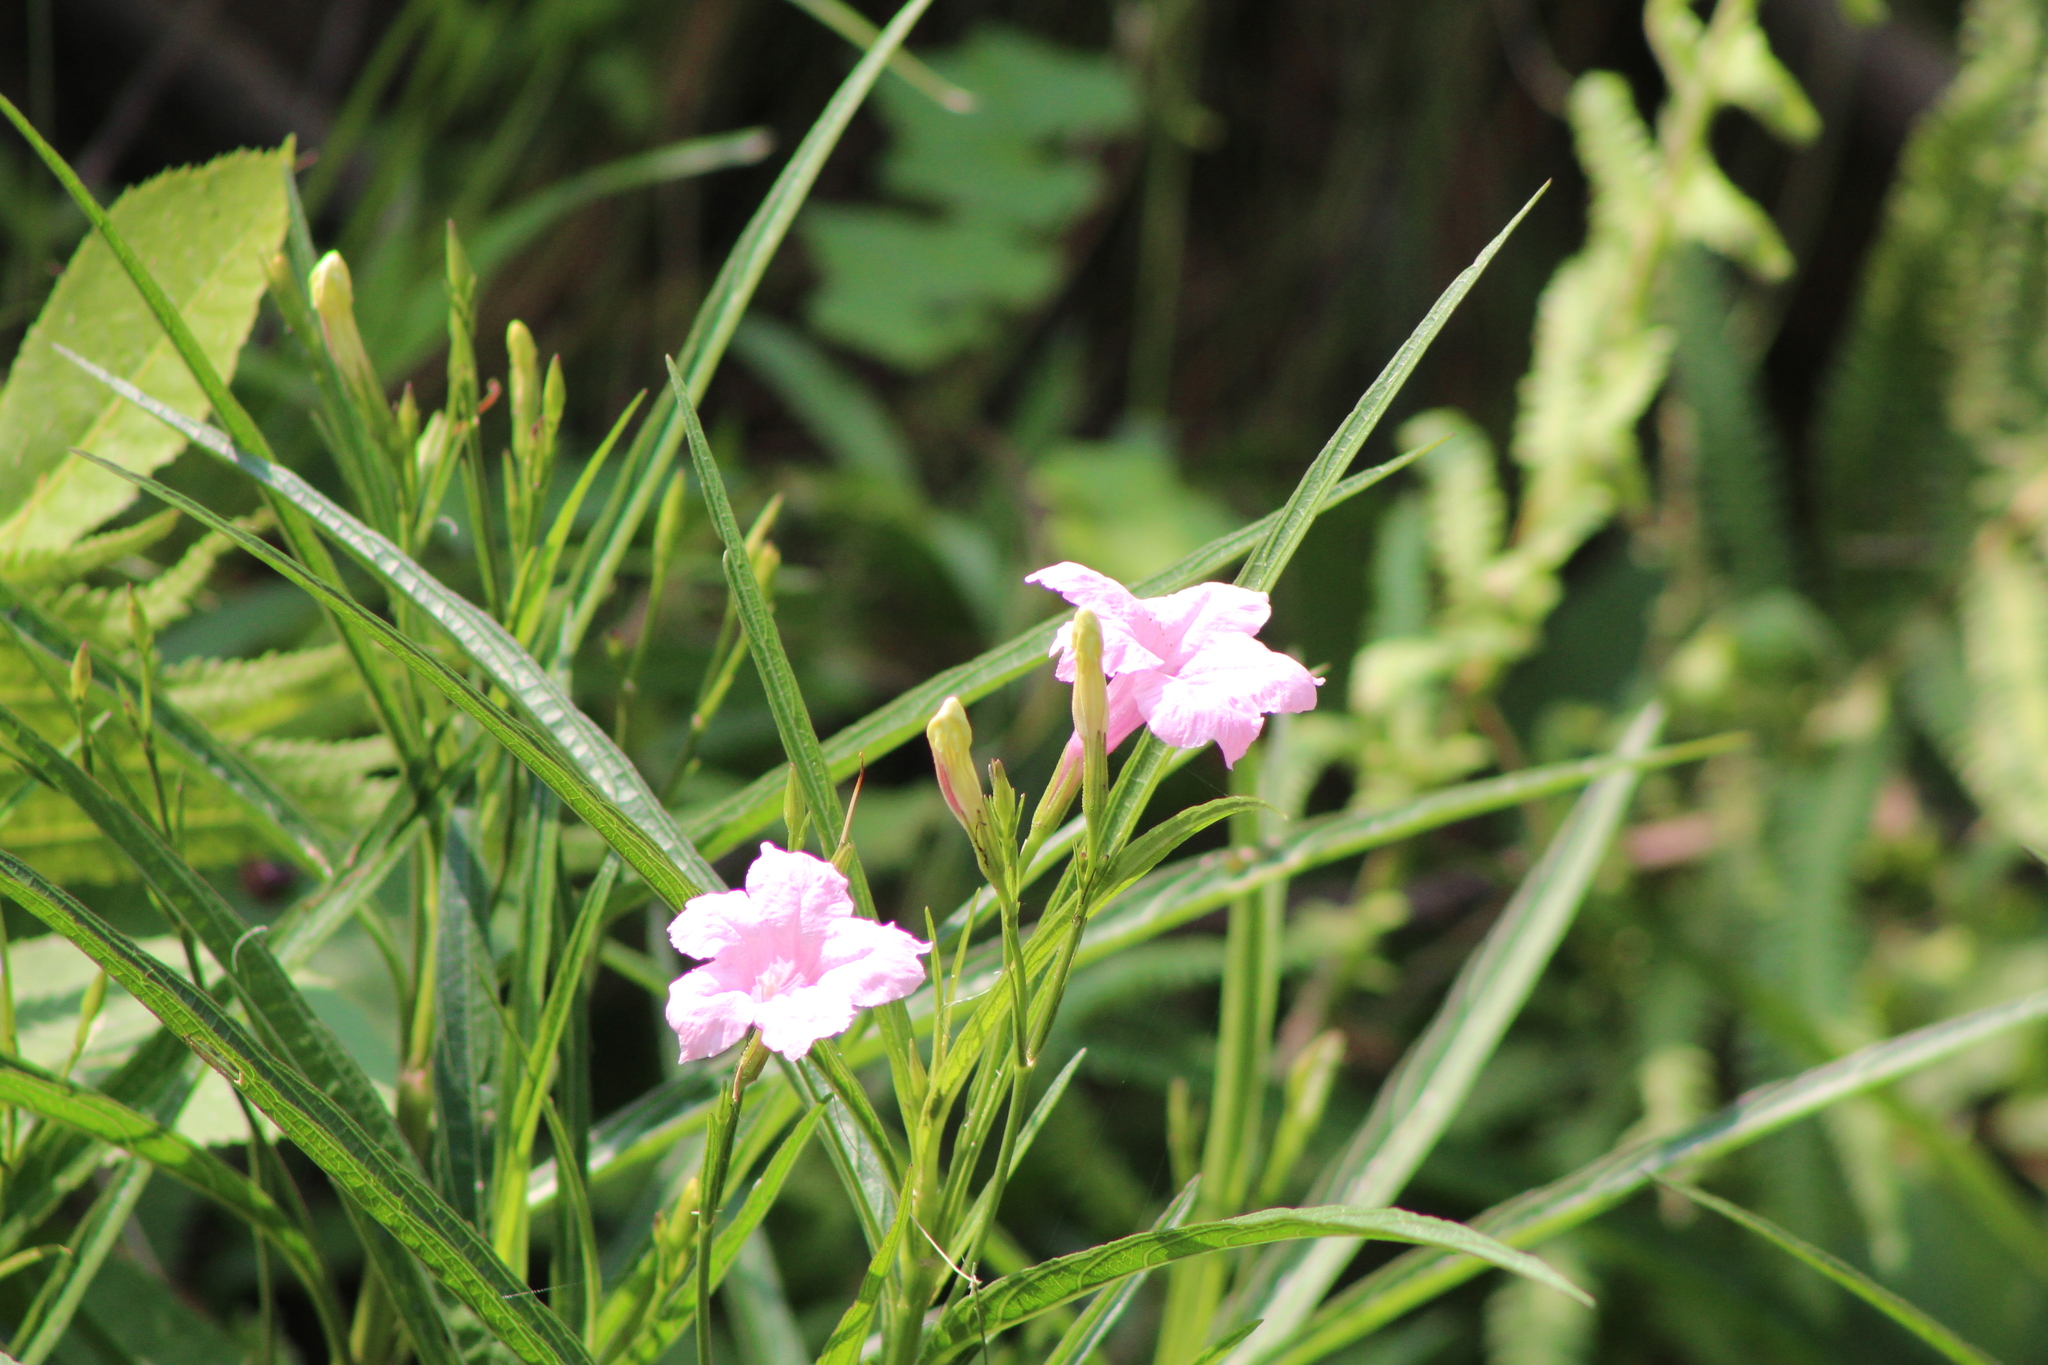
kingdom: Plantae
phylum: Tracheophyta
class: Magnoliopsida
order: Lamiales
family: Acanthaceae
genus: Ruellia
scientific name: Ruellia simplex
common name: Softseed wild petunia
